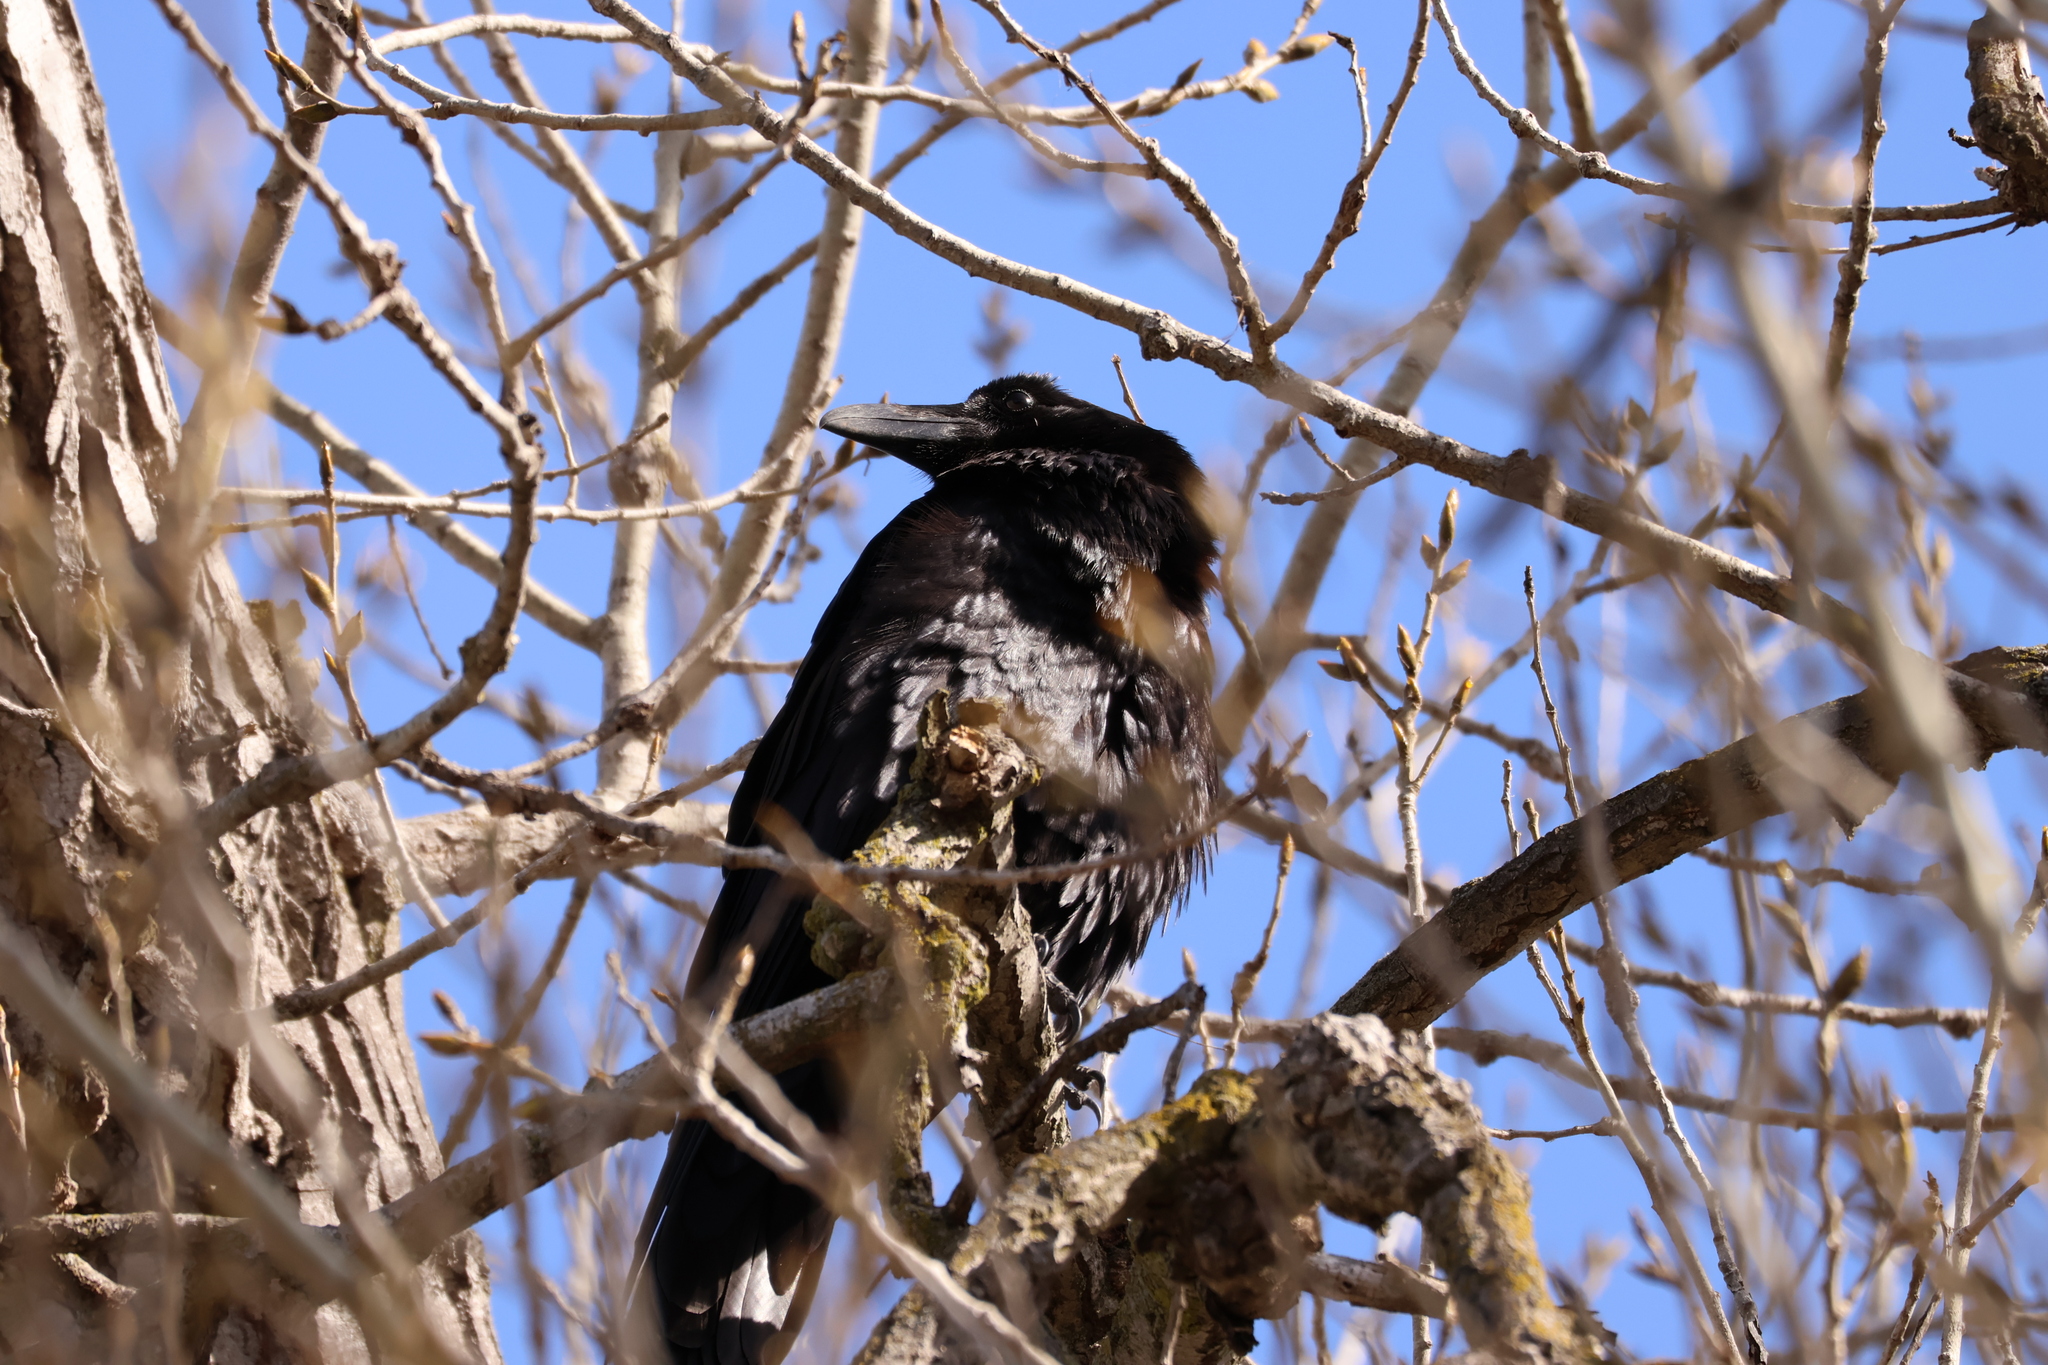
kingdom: Animalia
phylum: Chordata
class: Aves
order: Passeriformes
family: Corvidae
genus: Corvus
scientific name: Corvus corax
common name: Common raven
